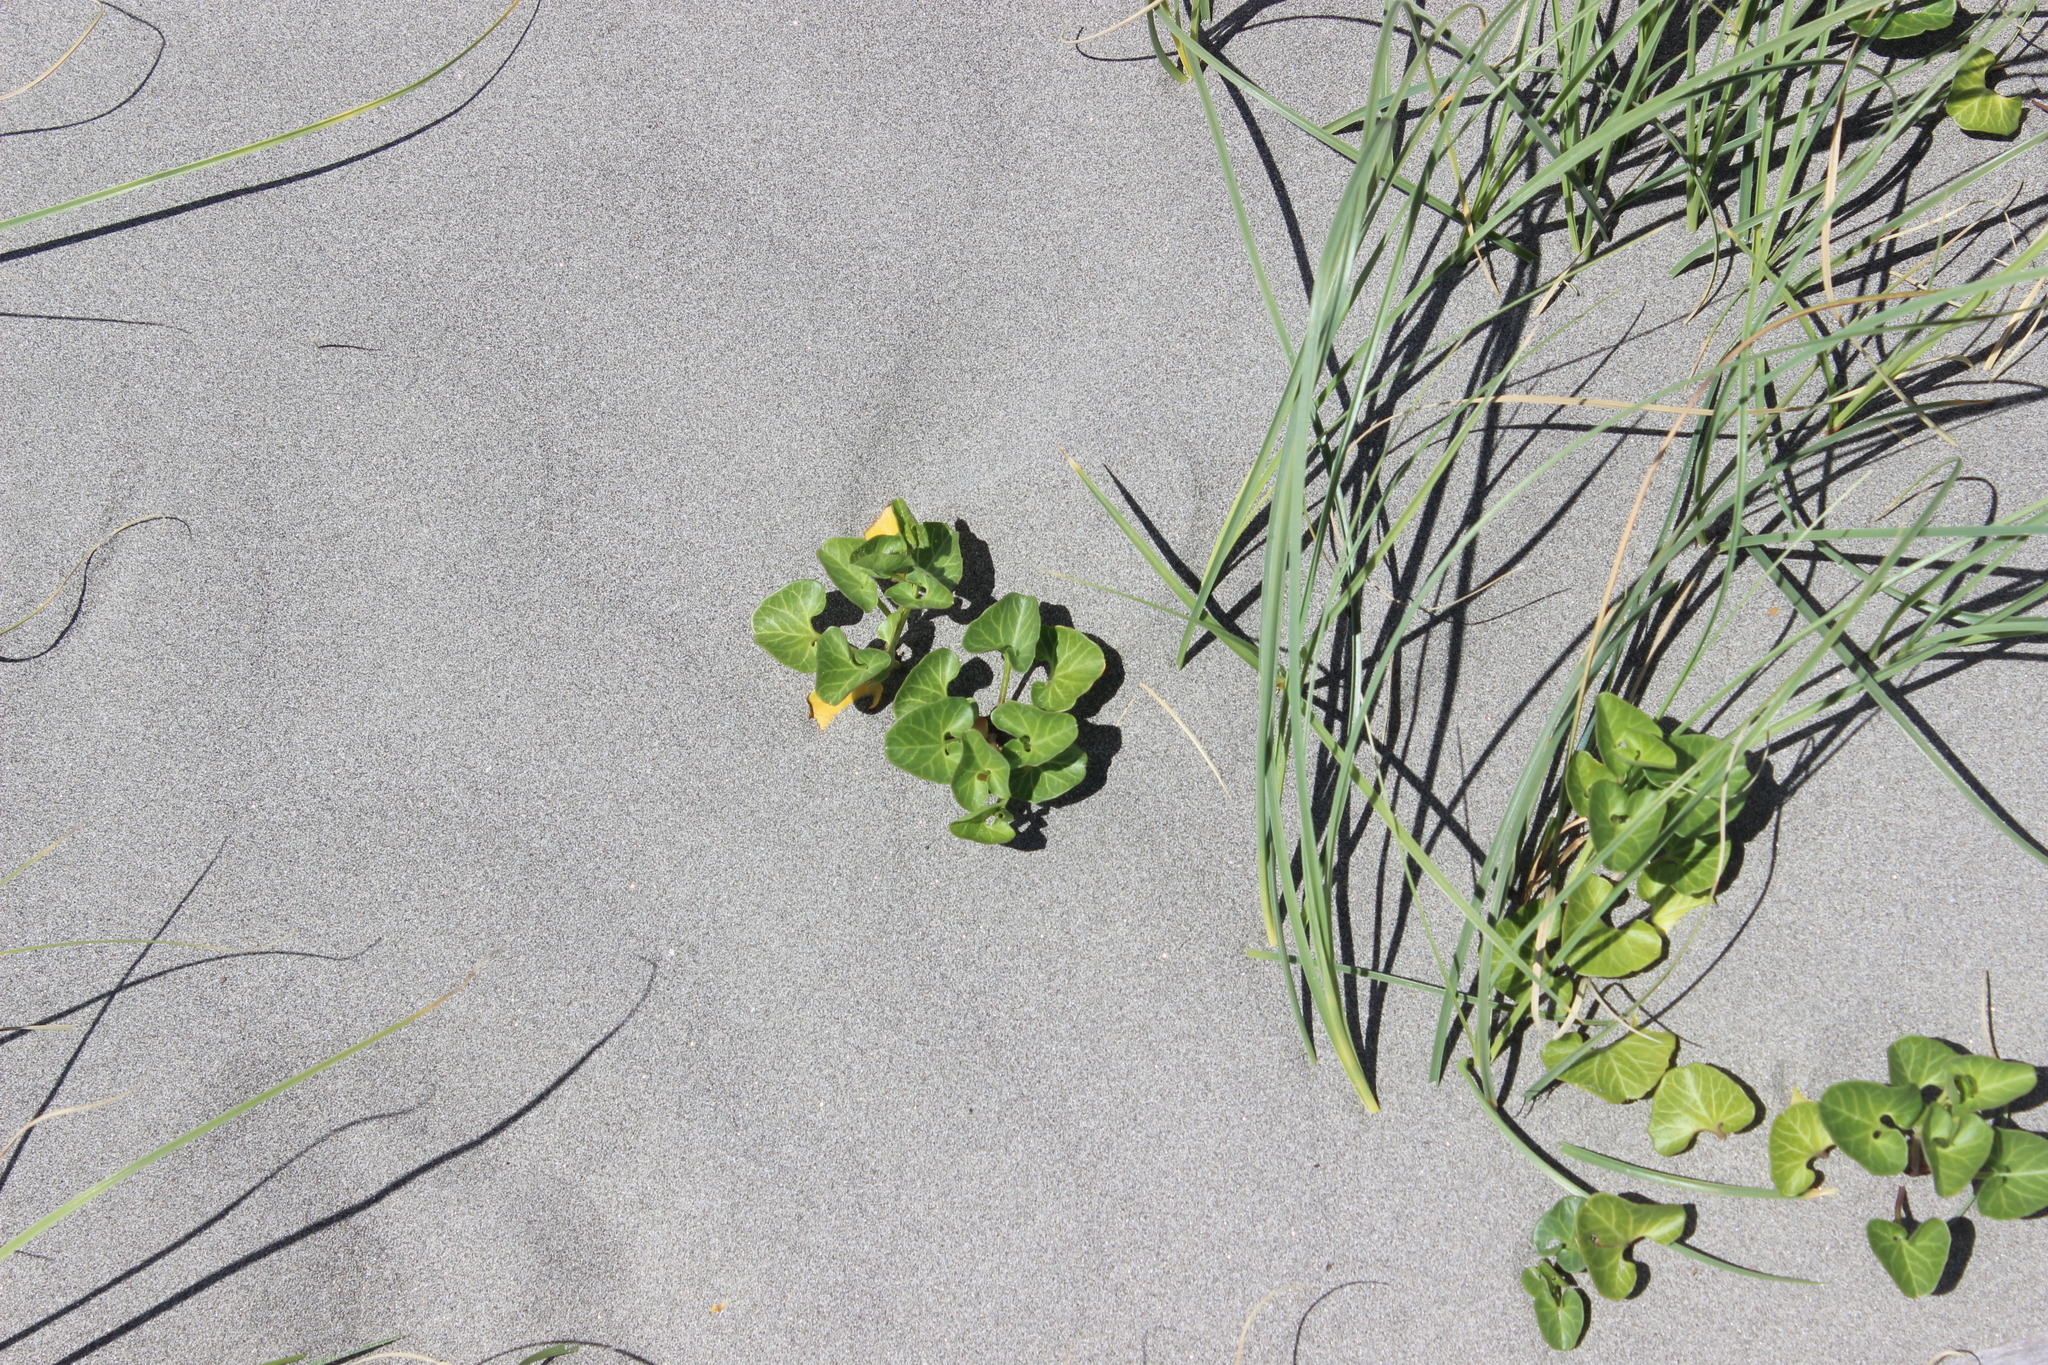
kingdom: Plantae
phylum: Tracheophyta
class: Magnoliopsida
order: Solanales
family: Convolvulaceae
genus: Calystegia
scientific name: Calystegia soldanella
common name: Sea bindweed
